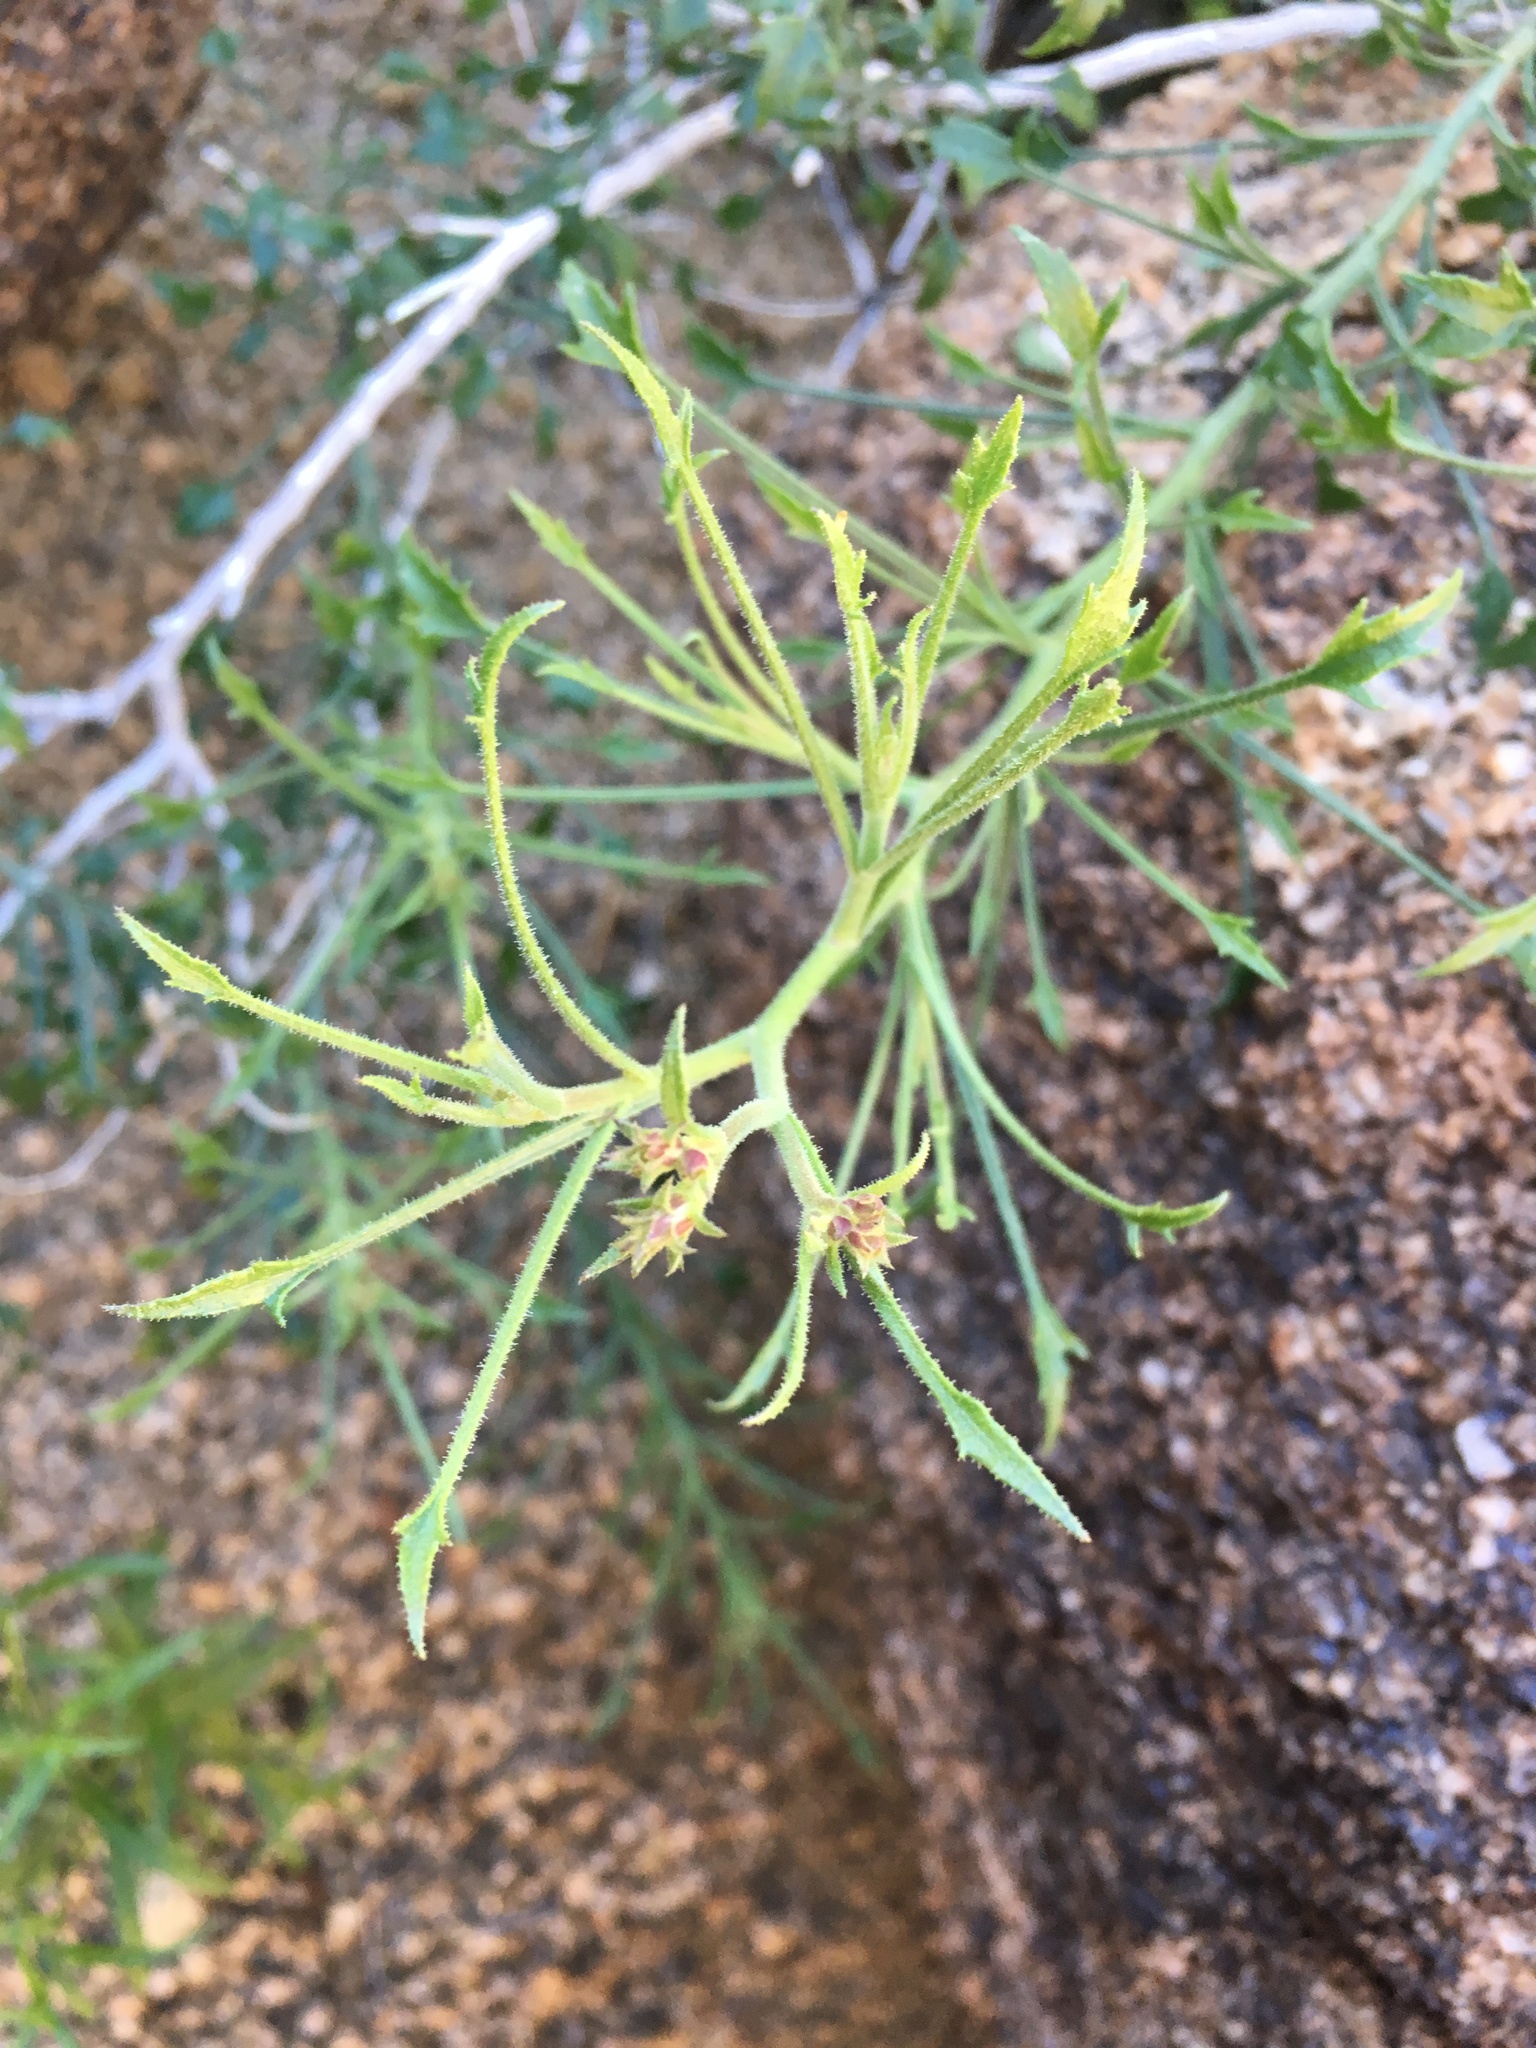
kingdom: Plantae
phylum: Tracheophyta
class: Magnoliopsida
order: Asterales
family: Asteraceae
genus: Pleurocoronis
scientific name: Pleurocoronis pluriseta
